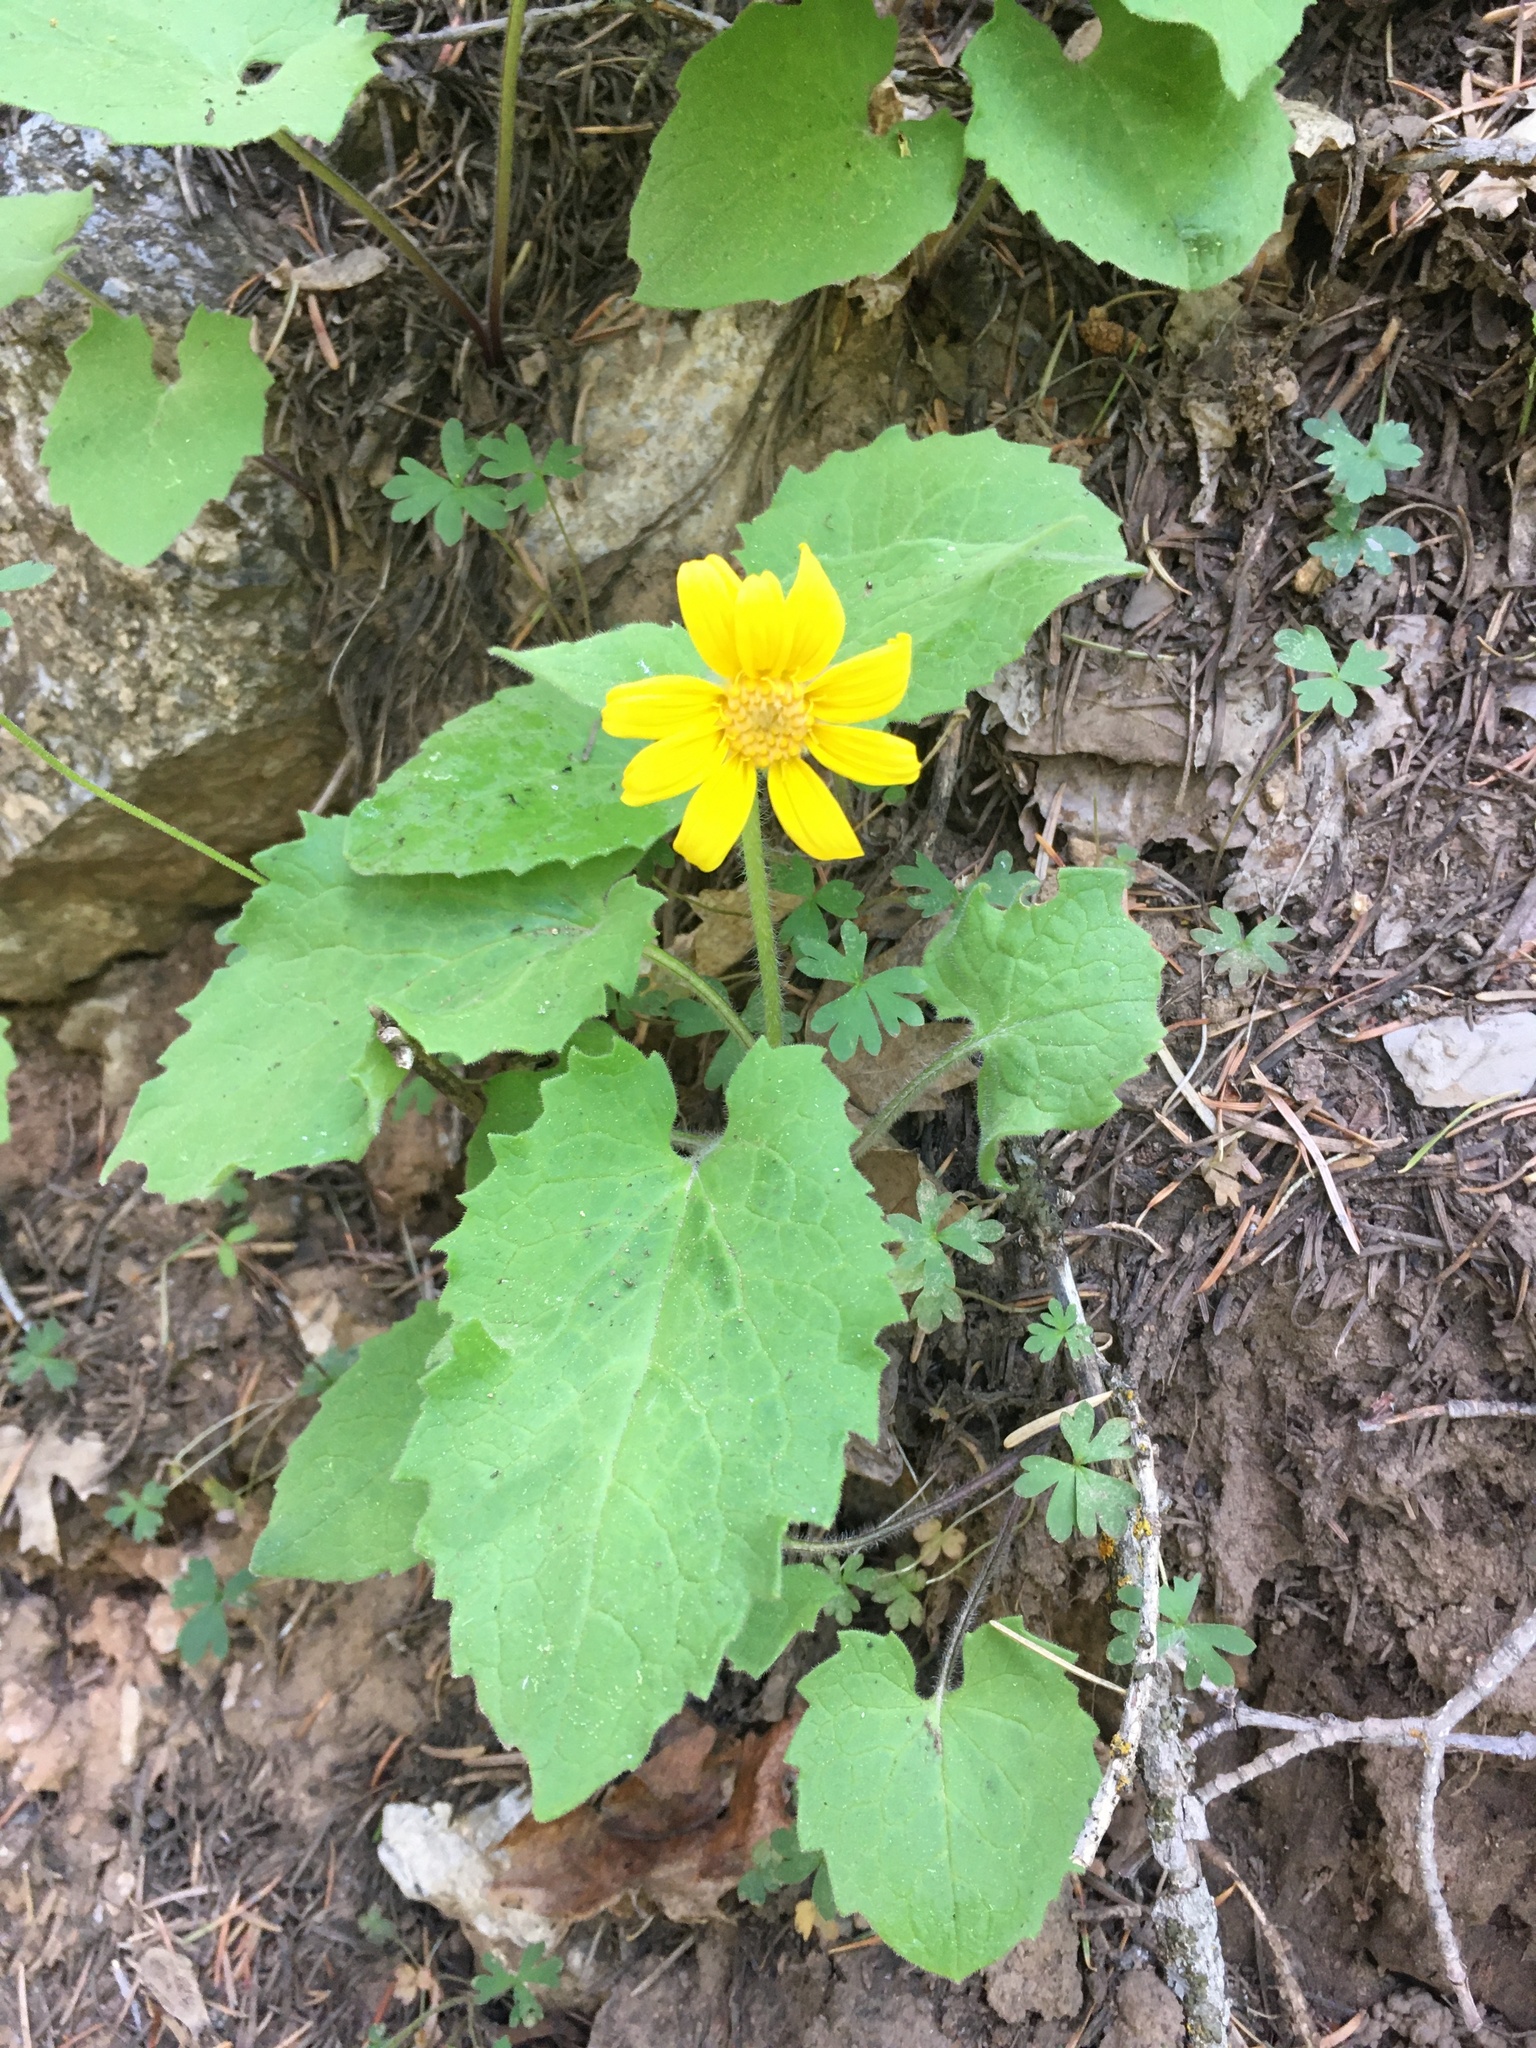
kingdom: Plantae
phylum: Tracheophyta
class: Magnoliopsida
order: Asterales
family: Asteraceae
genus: Arnica
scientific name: Arnica cordifolia
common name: Heart-leaf arnica
